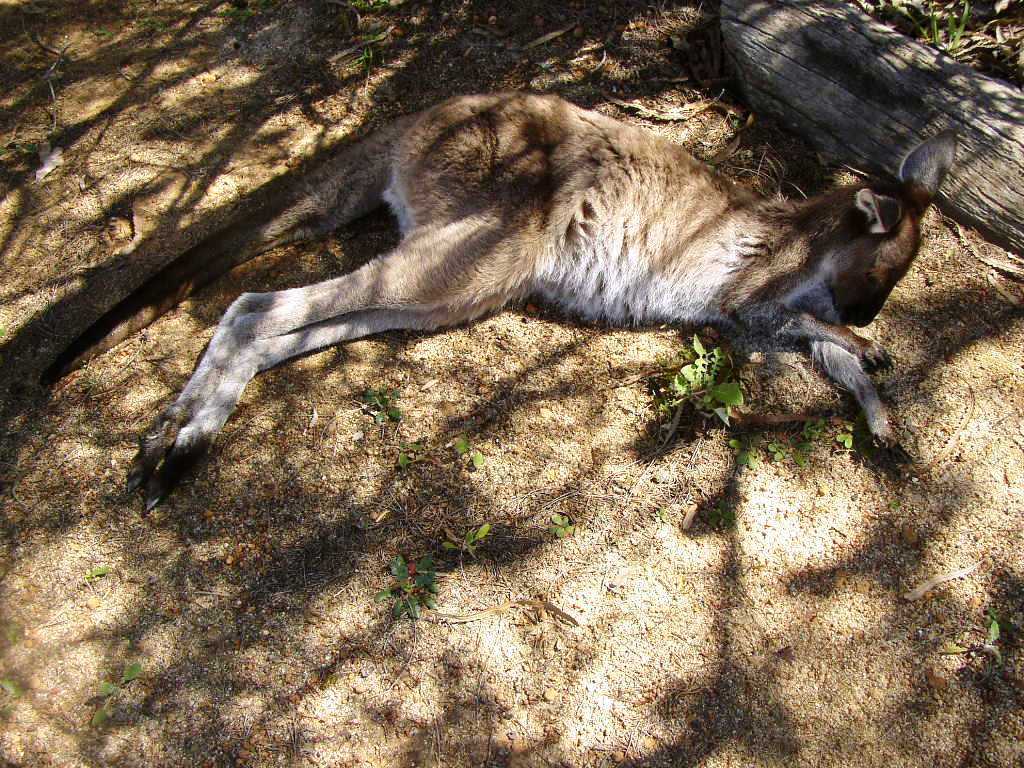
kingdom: Animalia
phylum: Chordata
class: Mammalia
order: Diprotodontia
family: Macropodidae
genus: Macropus
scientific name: Macropus fuliginosus
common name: Western grey kangaroo
